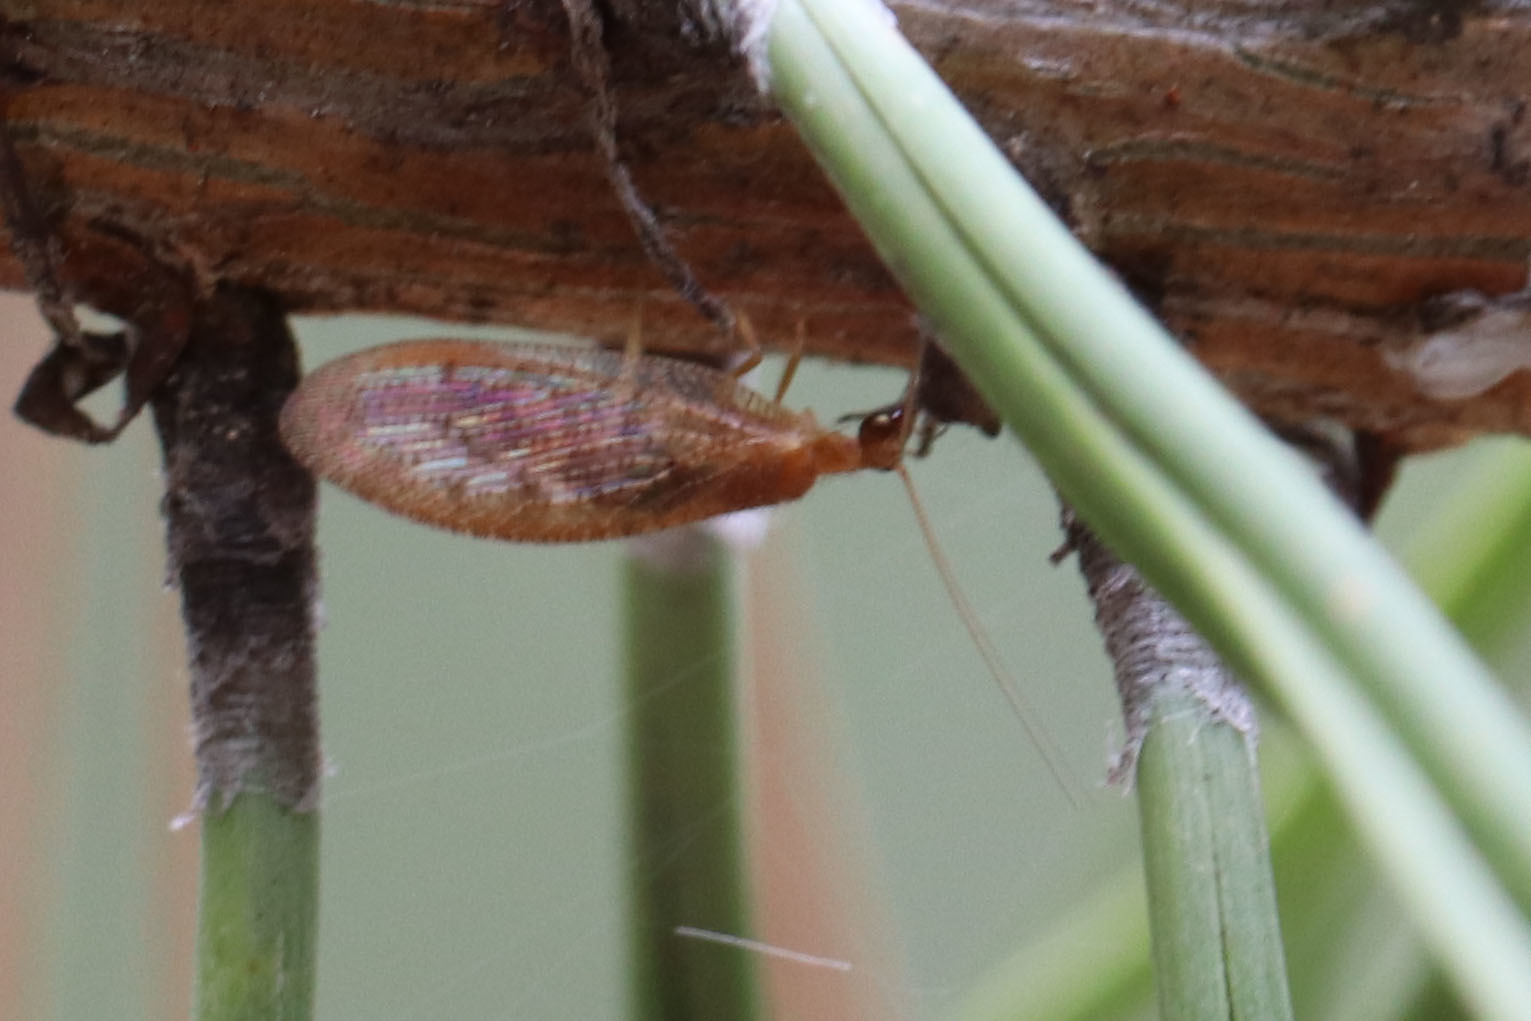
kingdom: Animalia
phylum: Arthropoda
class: Insecta
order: Neuroptera
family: Hemerobiidae
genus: Hemerobius
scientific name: Hemerobius stigma
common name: Brown pine lacewing
